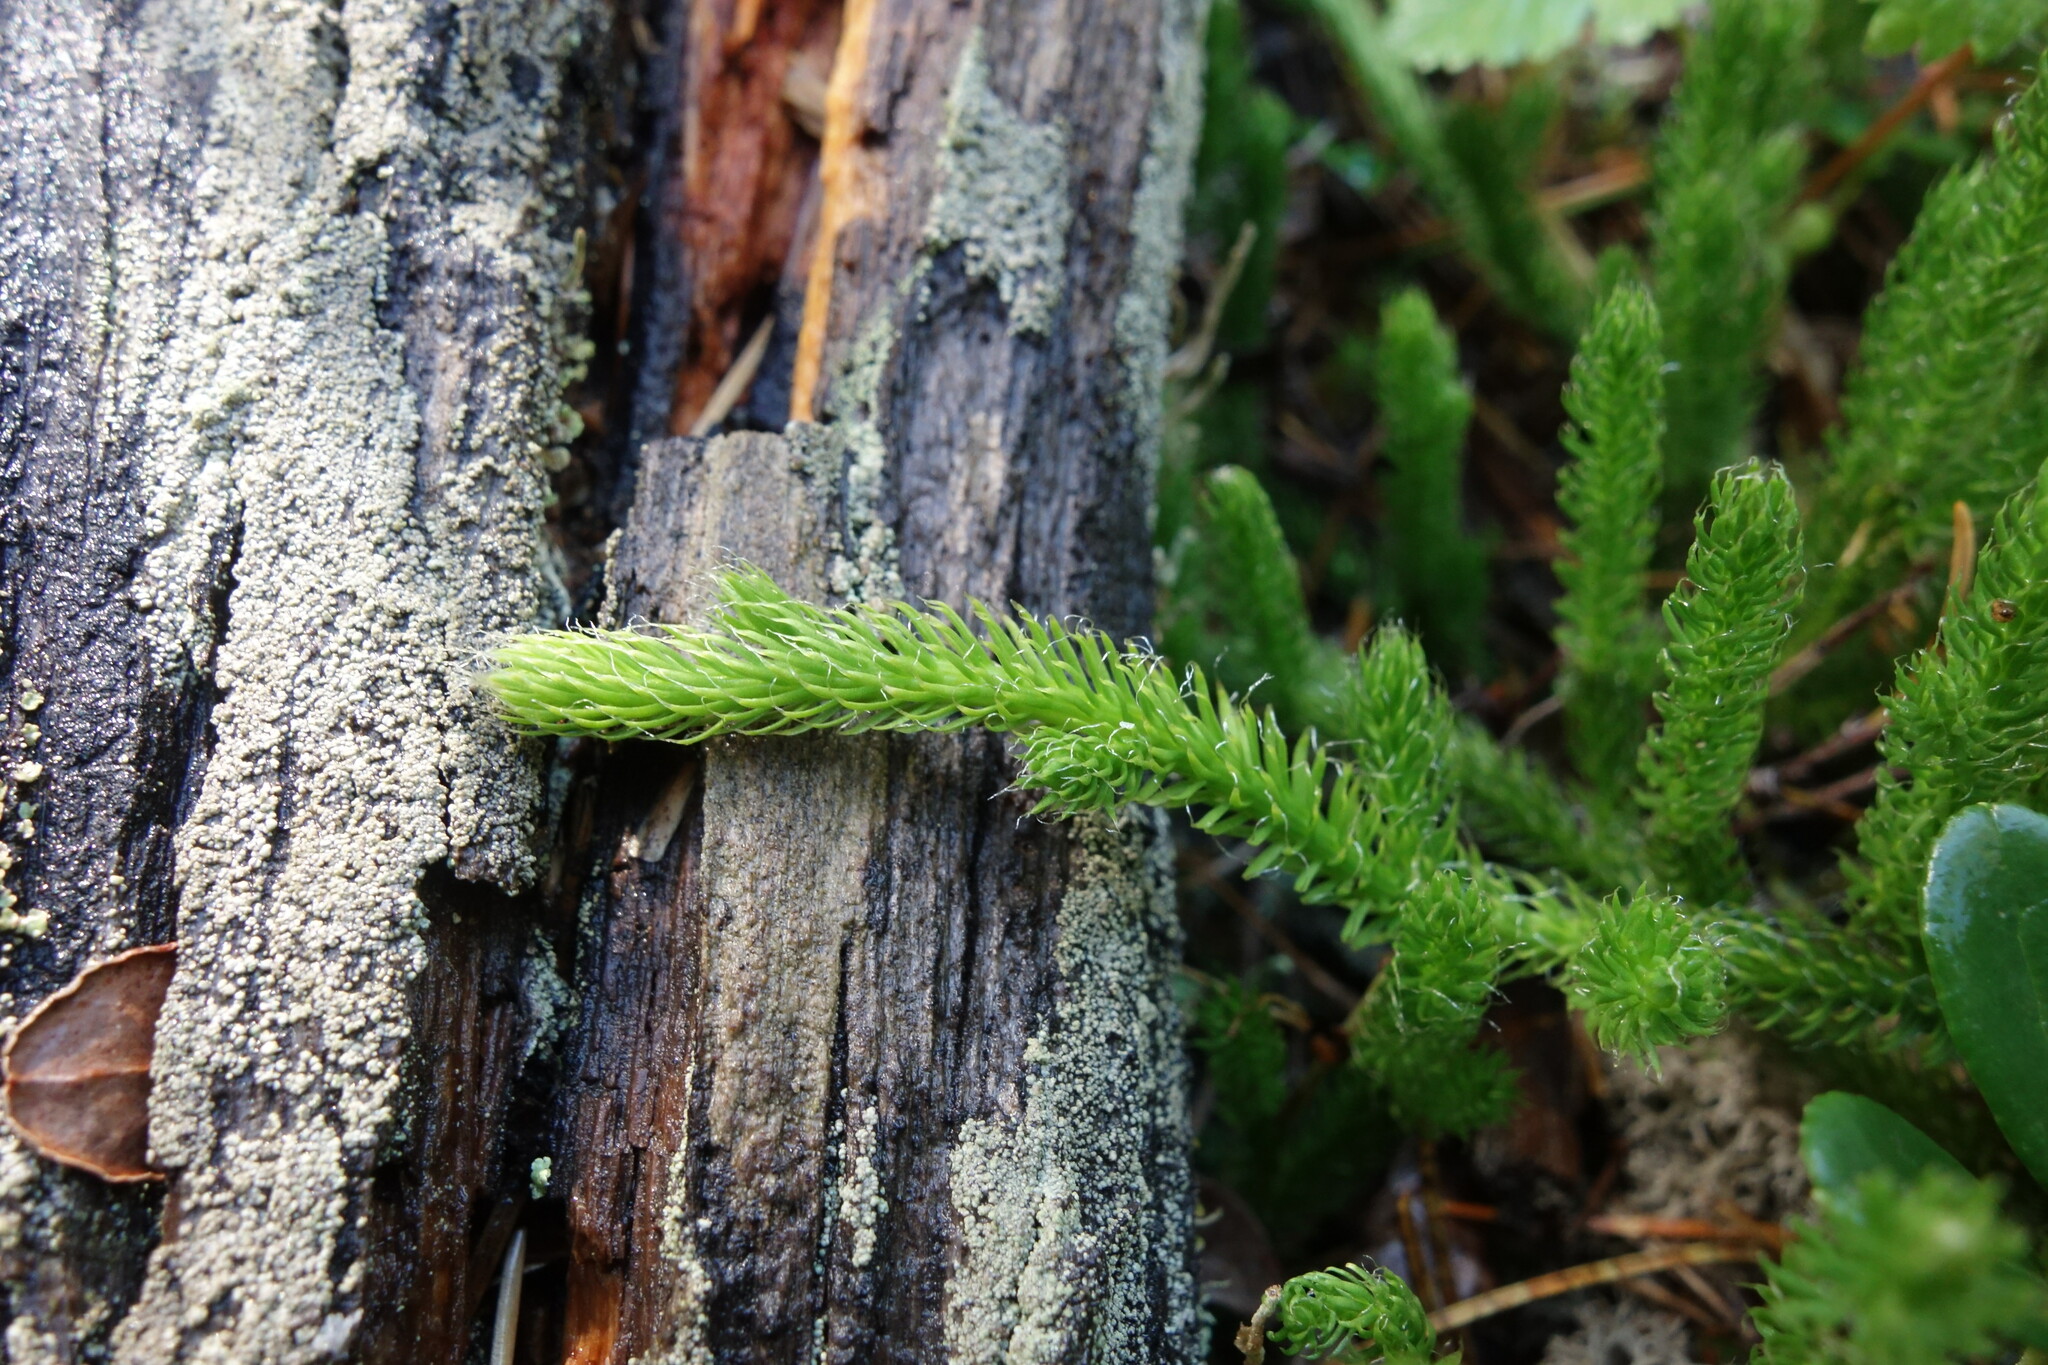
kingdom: Plantae
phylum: Tracheophyta
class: Lycopodiopsida
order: Lycopodiales
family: Lycopodiaceae
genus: Lycopodium
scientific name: Lycopodium lagopus
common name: One-cone clubmoss
